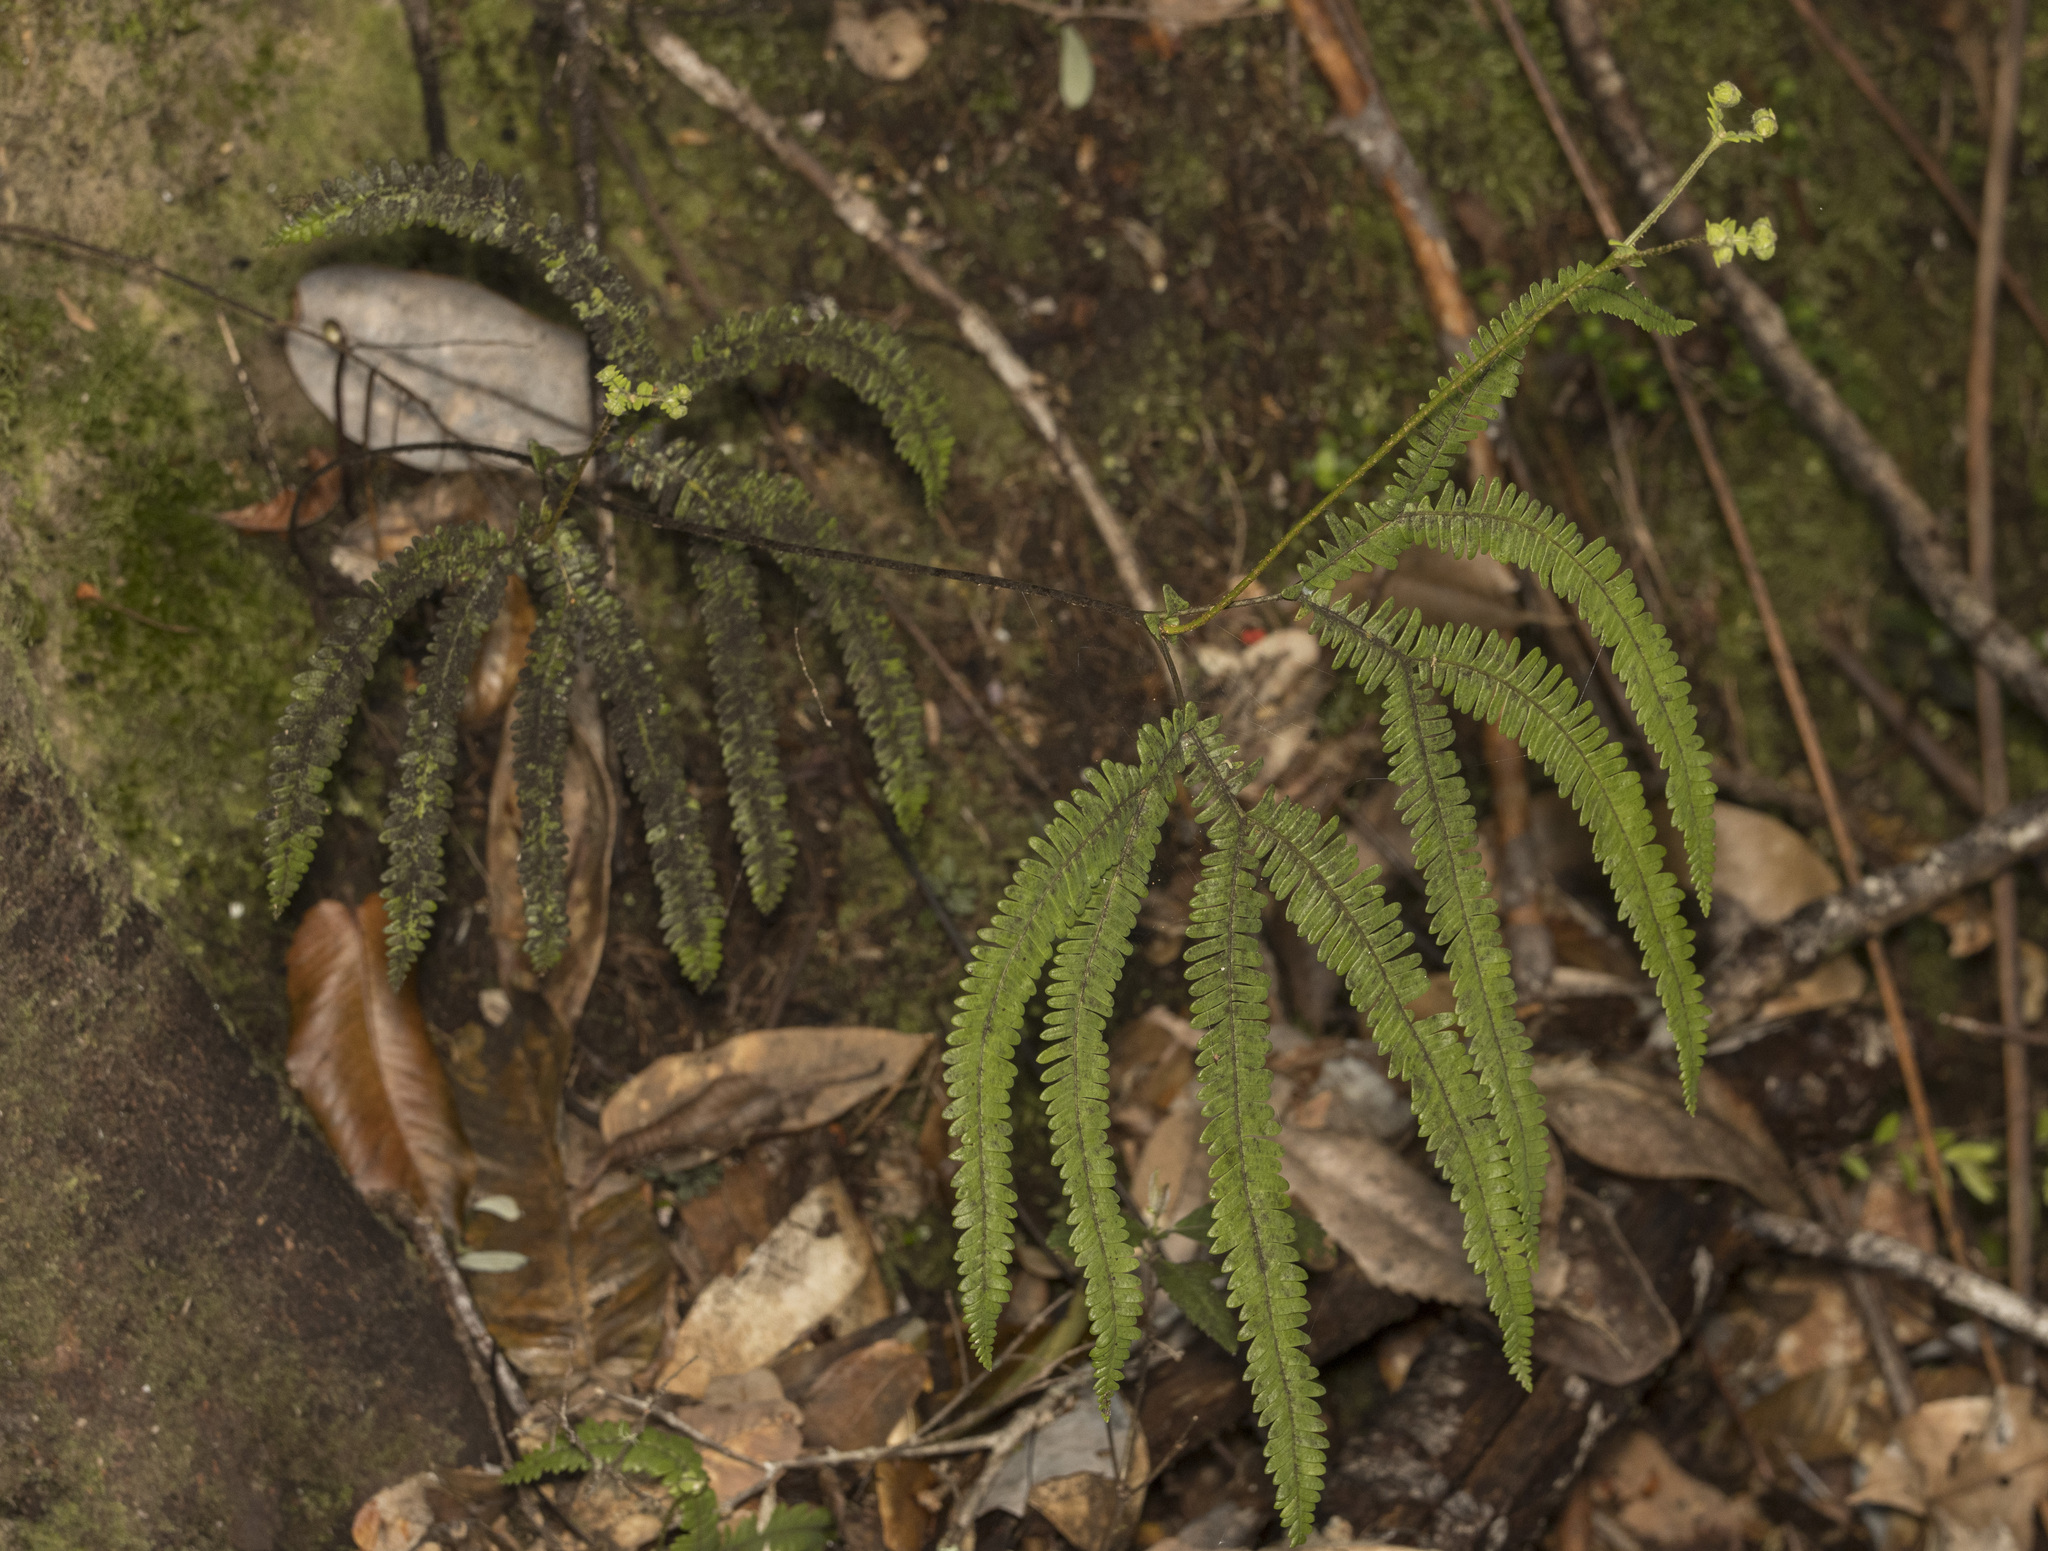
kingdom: Plantae
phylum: Tracheophyta
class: Polypodiopsida
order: Gleicheniales
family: Gleicheniaceae
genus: Sticherus
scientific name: Sticherus squamulosus
